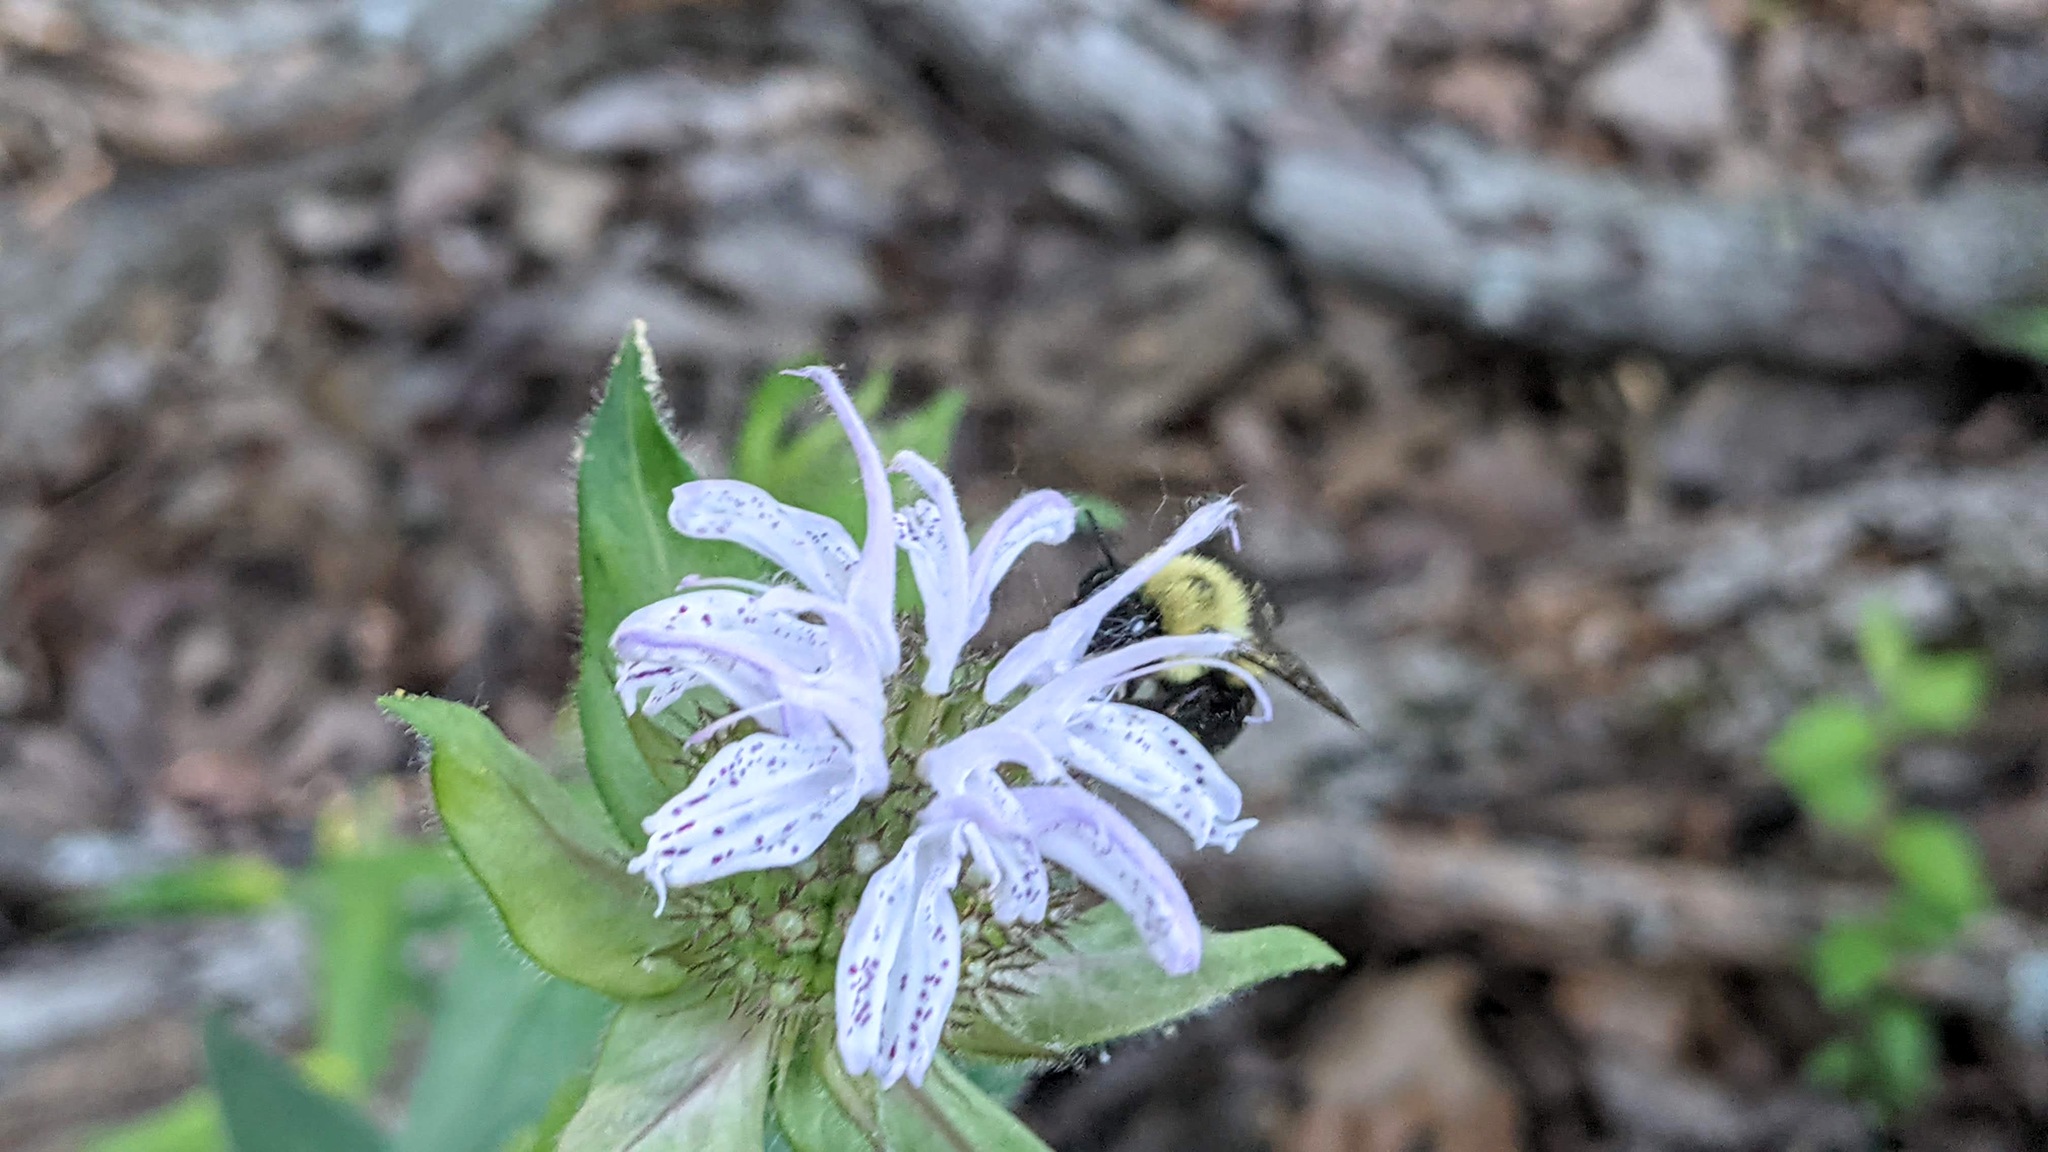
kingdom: Animalia
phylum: Arthropoda
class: Insecta
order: Hymenoptera
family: Apidae
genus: Bombus
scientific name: Bombus bimaculatus
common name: Two-spotted bumble bee
